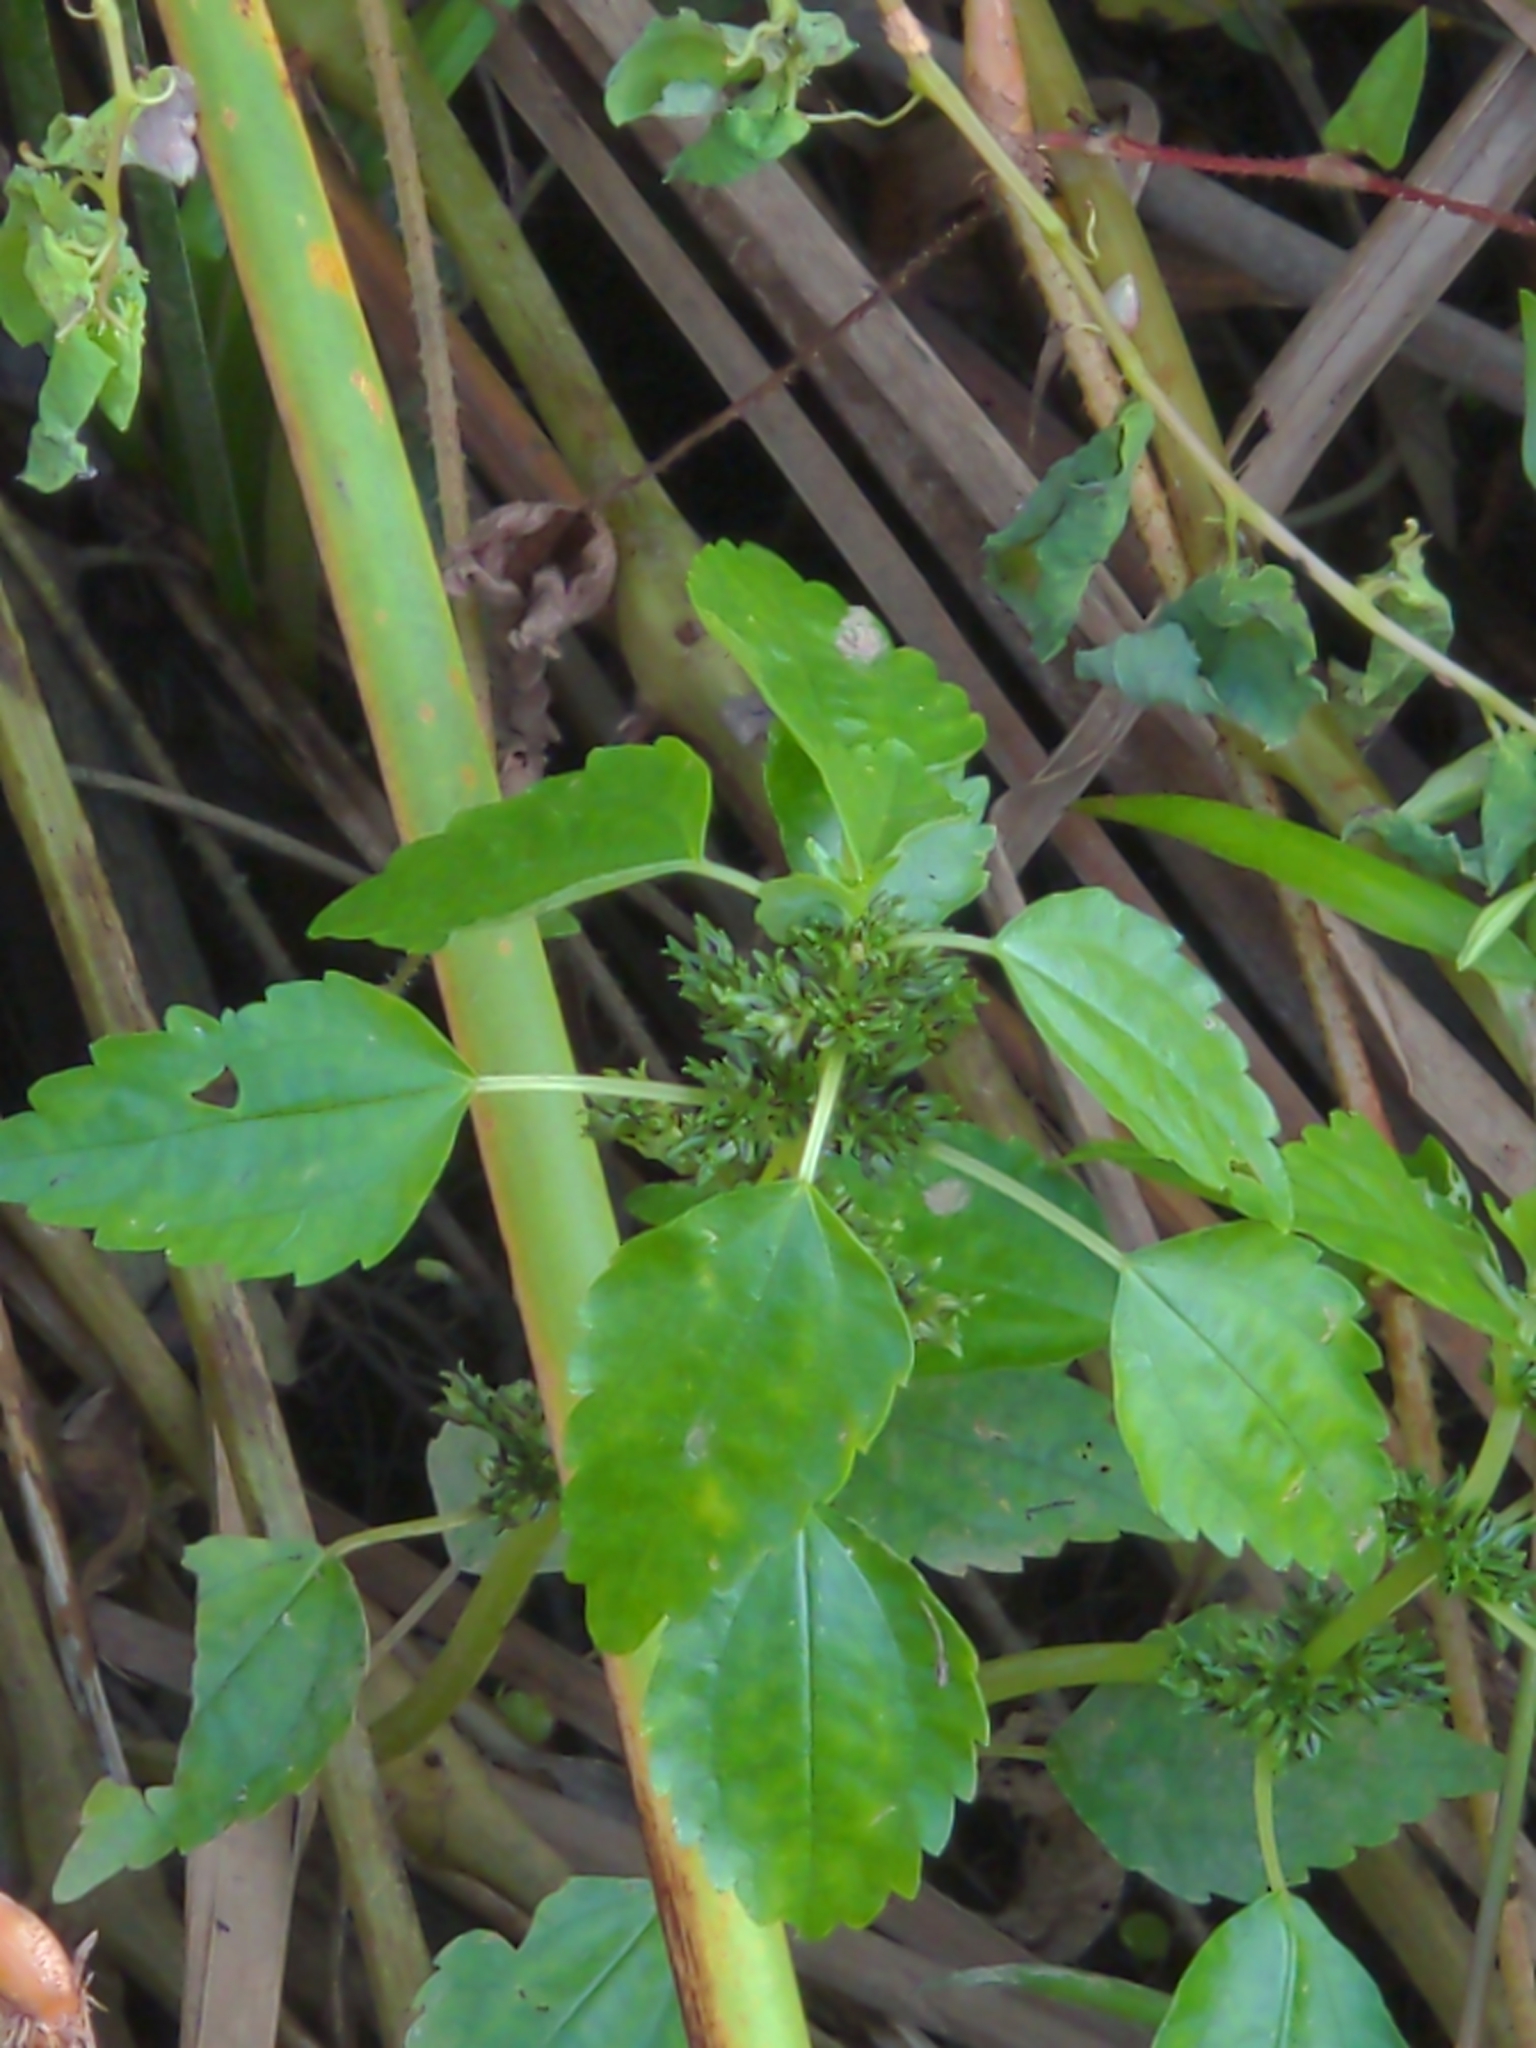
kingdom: Plantae
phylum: Tracheophyta
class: Magnoliopsida
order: Rosales
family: Urticaceae
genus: Pilea
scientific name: Pilea pumila
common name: Clearweed
